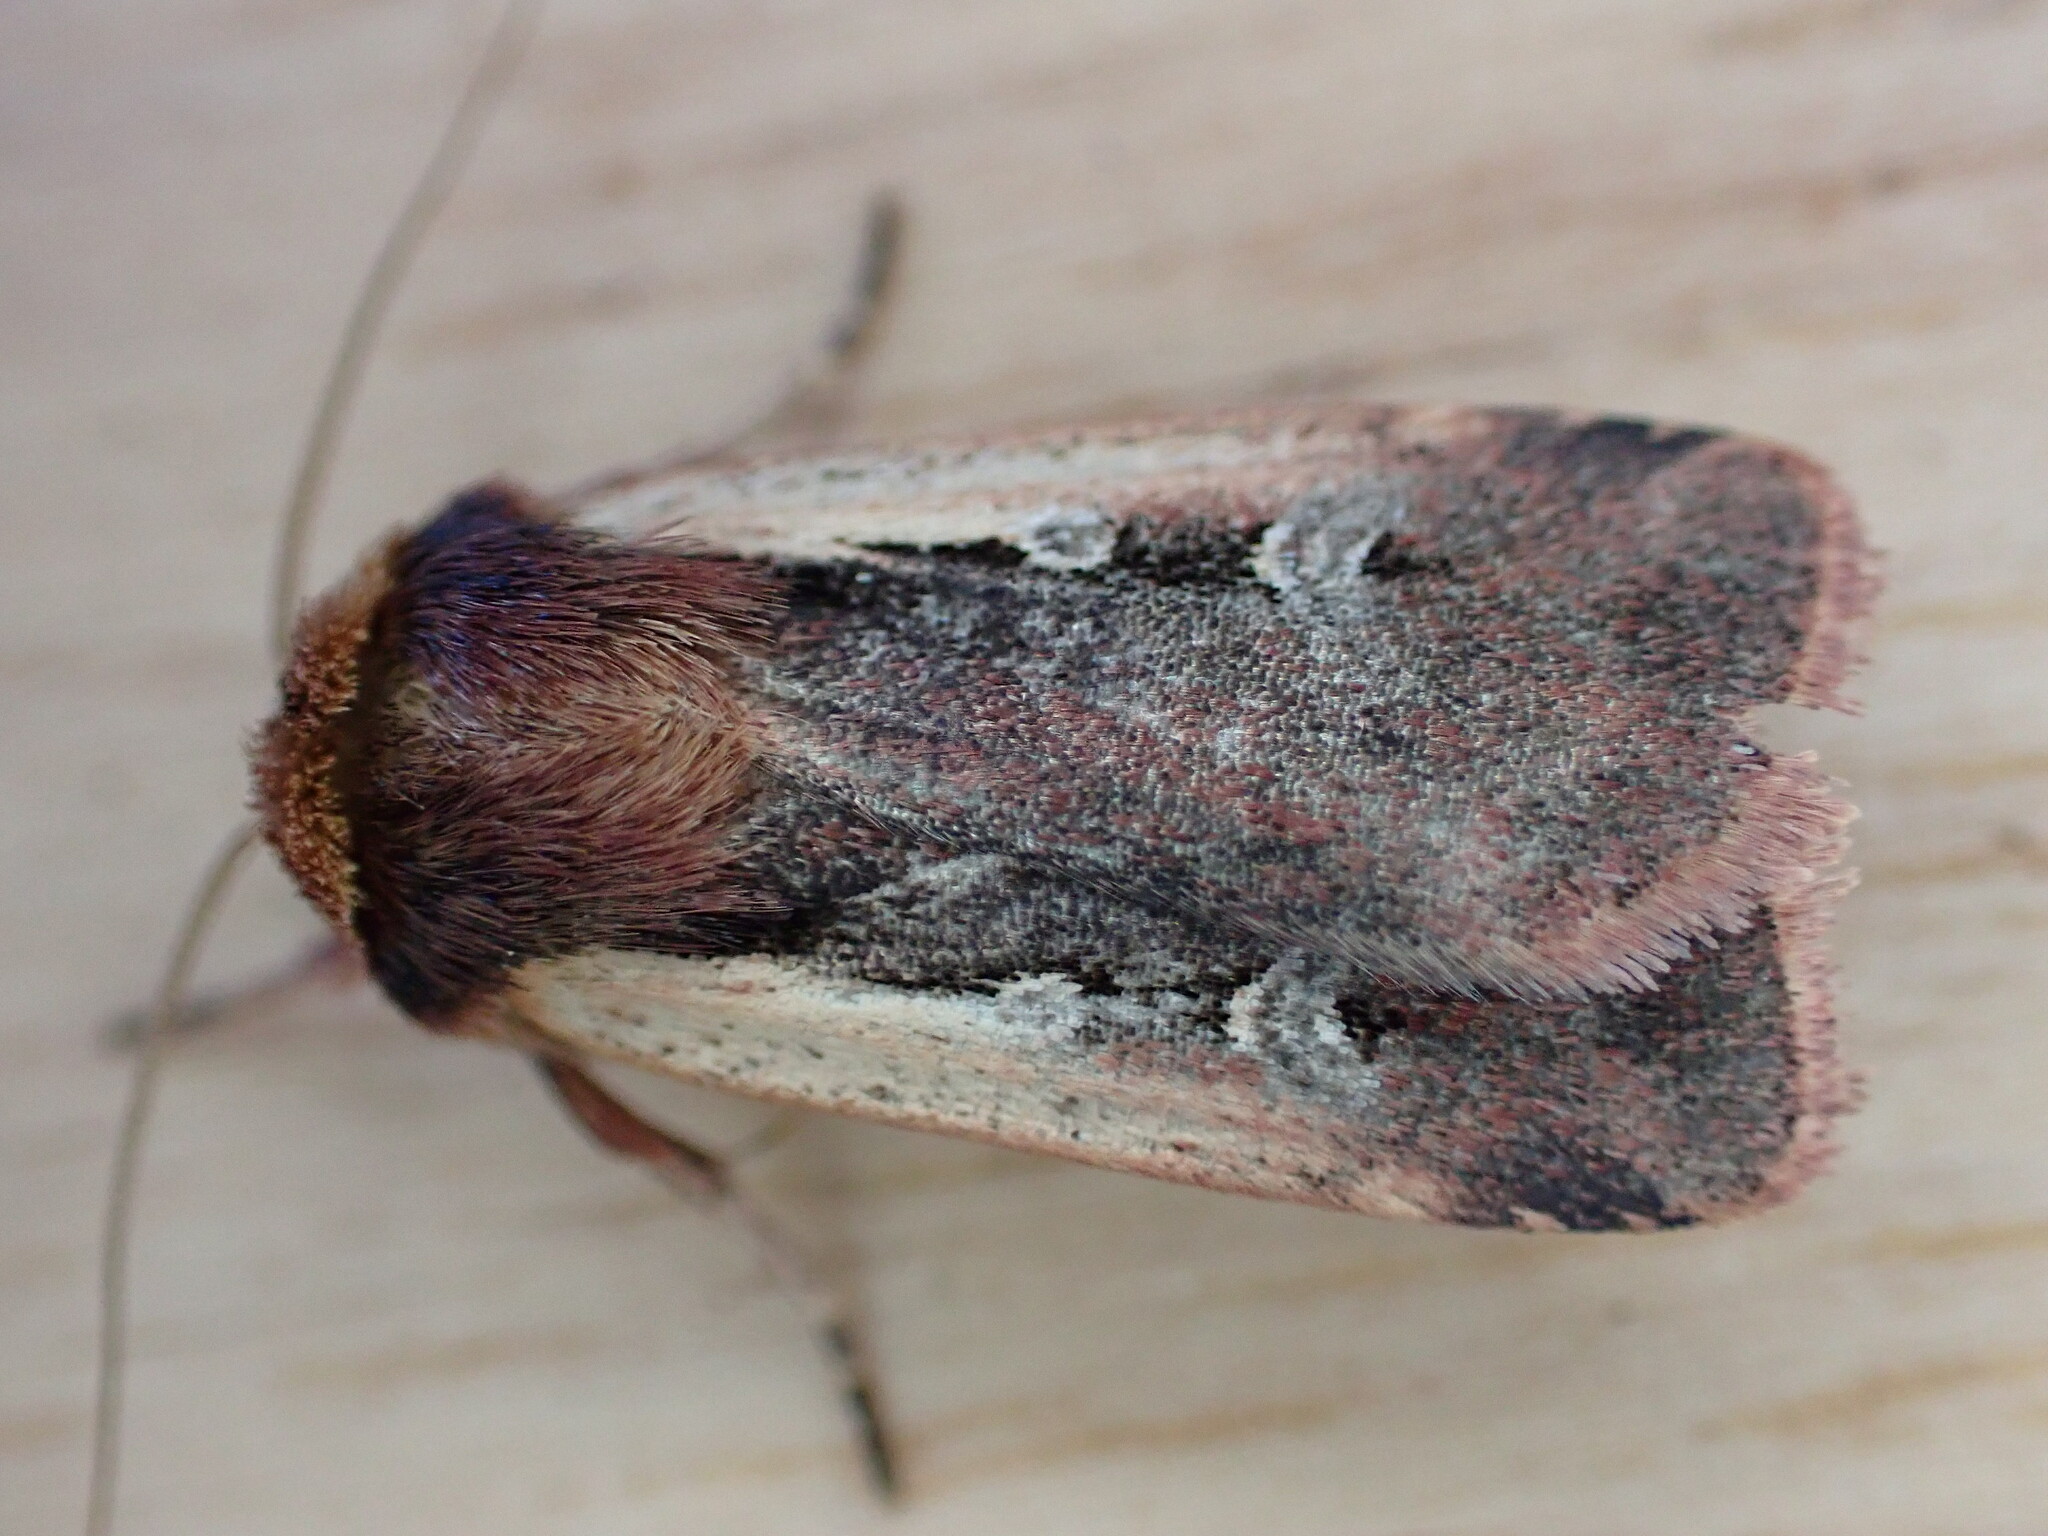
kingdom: Animalia
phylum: Arthropoda
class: Insecta
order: Lepidoptera
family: Noctuidae
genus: Ochropleura
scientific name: Ochropleura plecta
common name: Flame shoulder
